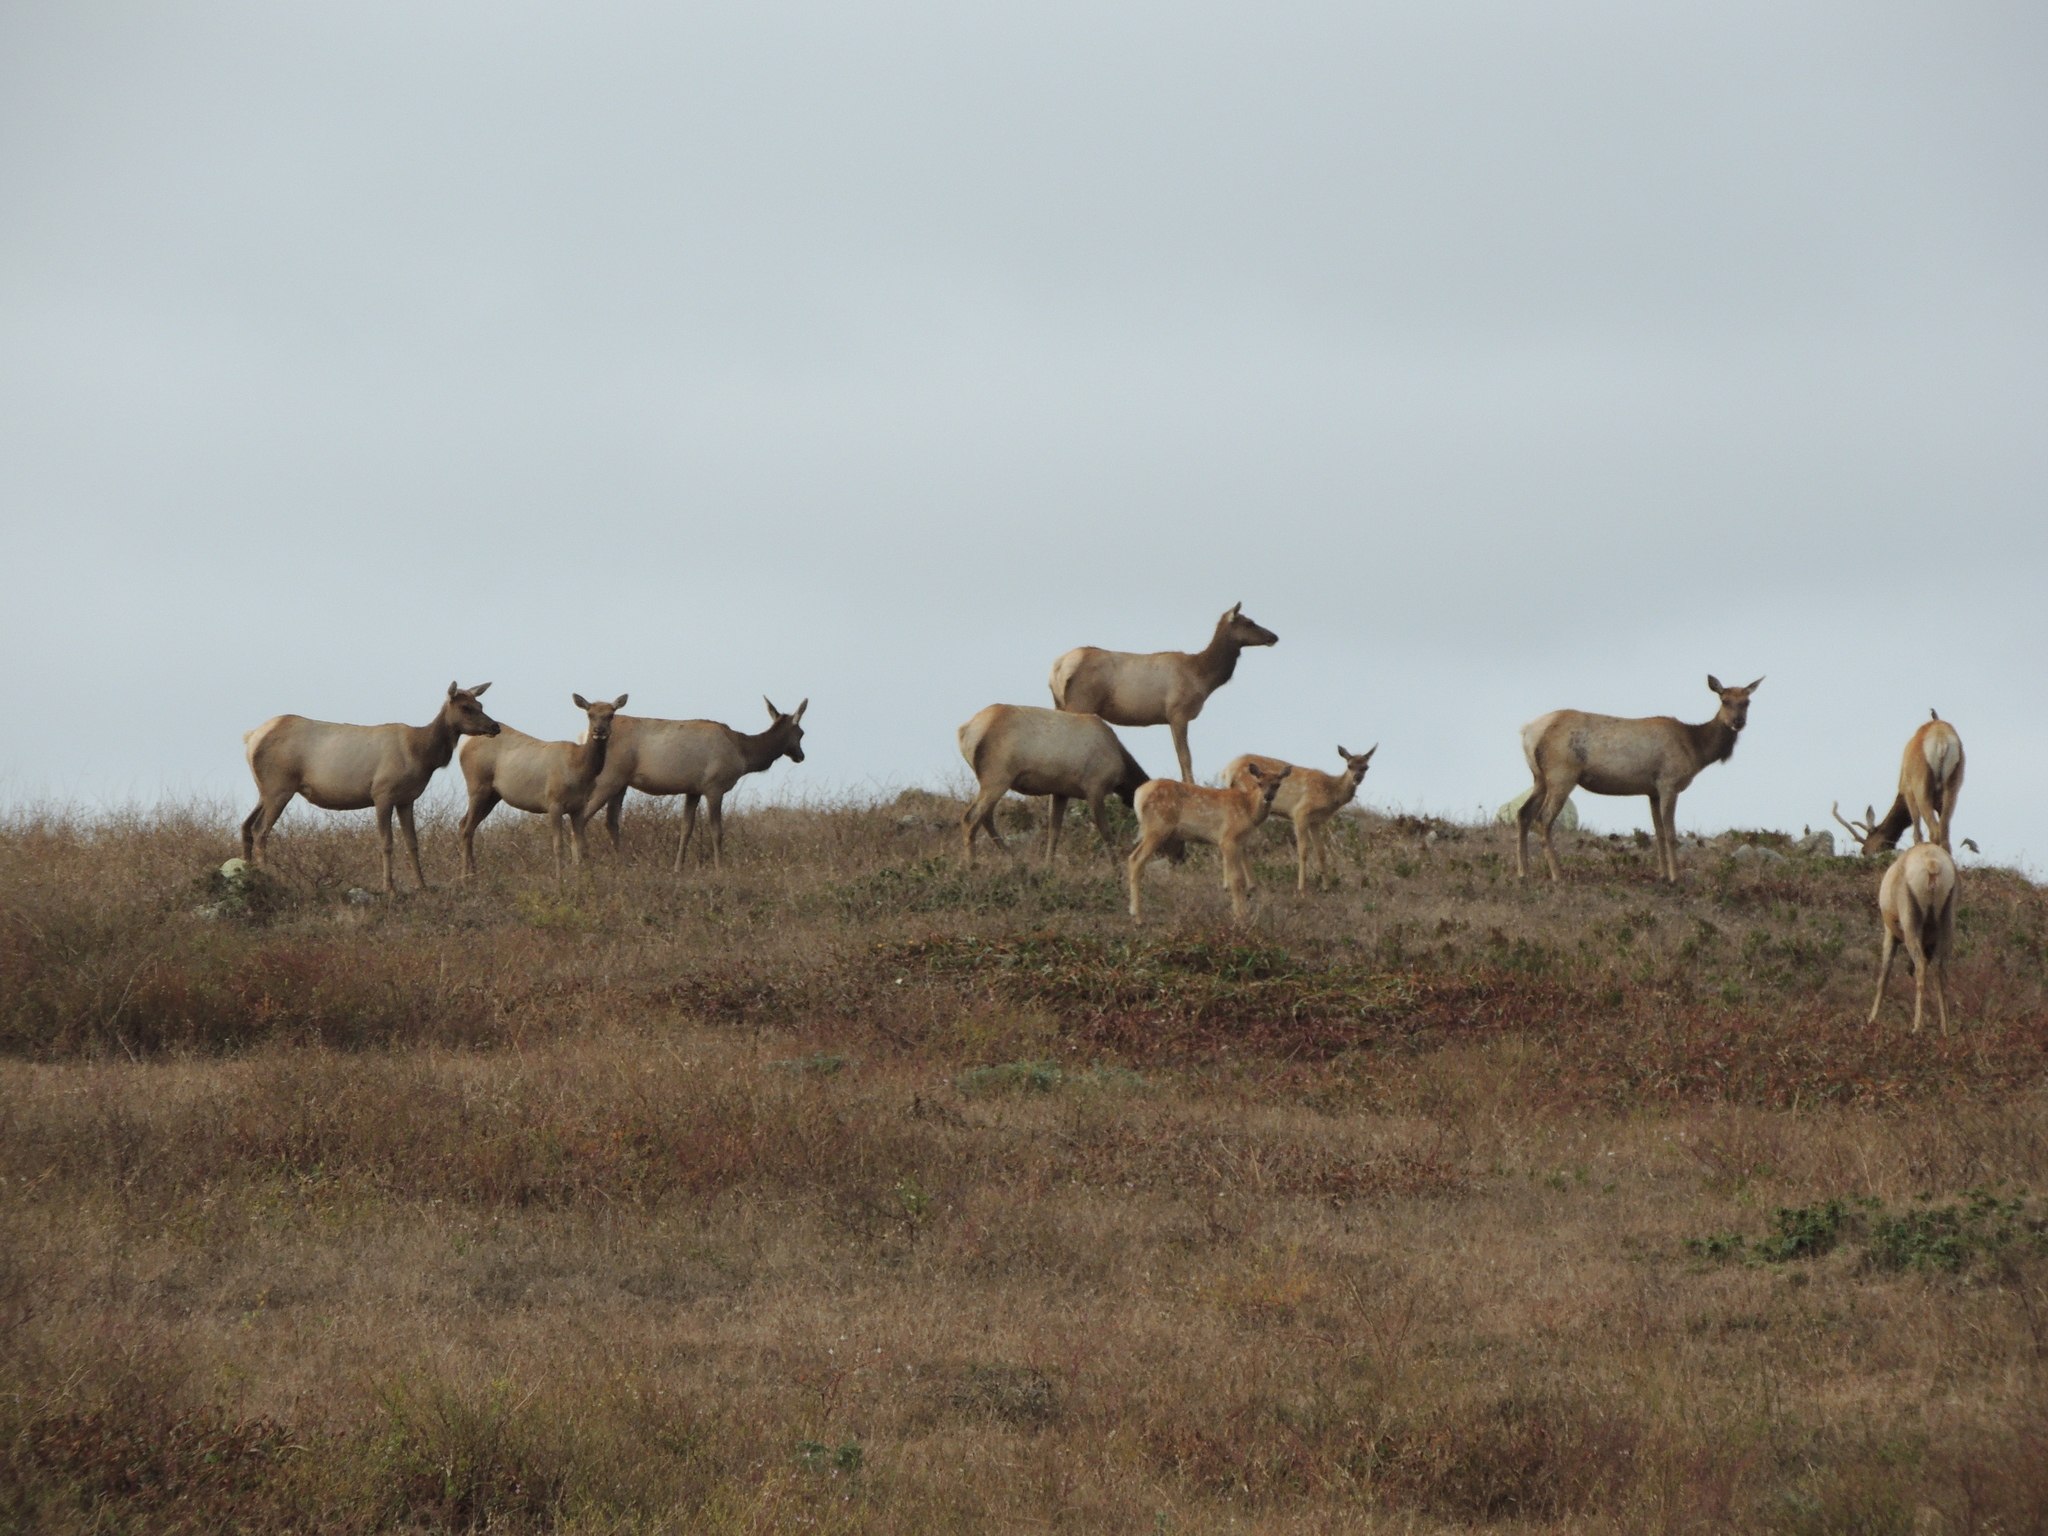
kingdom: Animalia
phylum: Chordata
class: Mammalia
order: Artiodactyla
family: Cervidae
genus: Cervus
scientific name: Cervus elaphus
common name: Red deer
